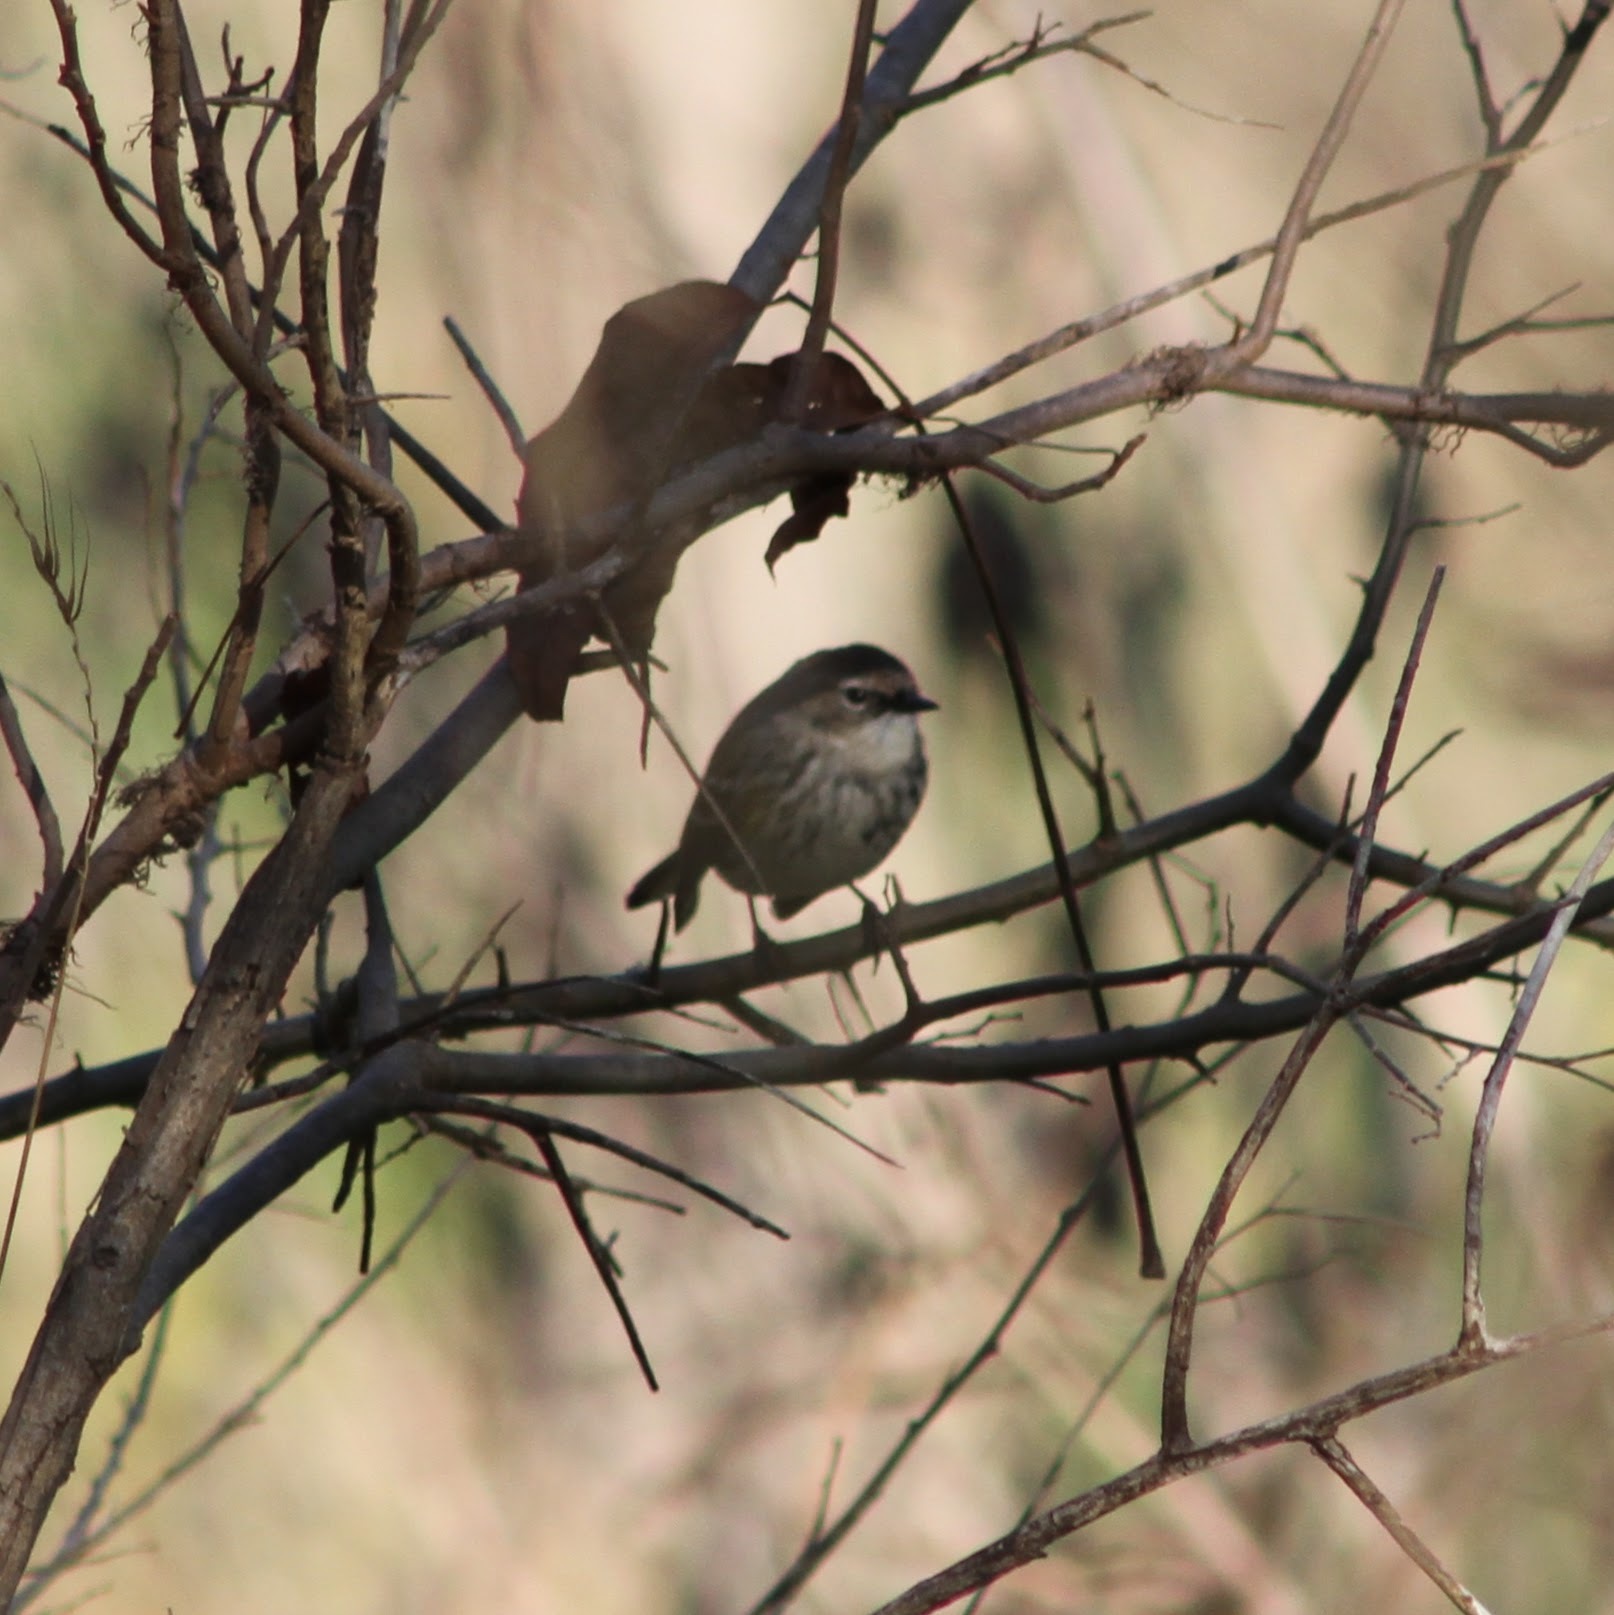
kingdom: Animalia
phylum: Chordata
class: Aves
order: Passeriformes
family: Parulidae
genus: Setophaga
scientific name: Setophaga coronata
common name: Myrtle warbler
